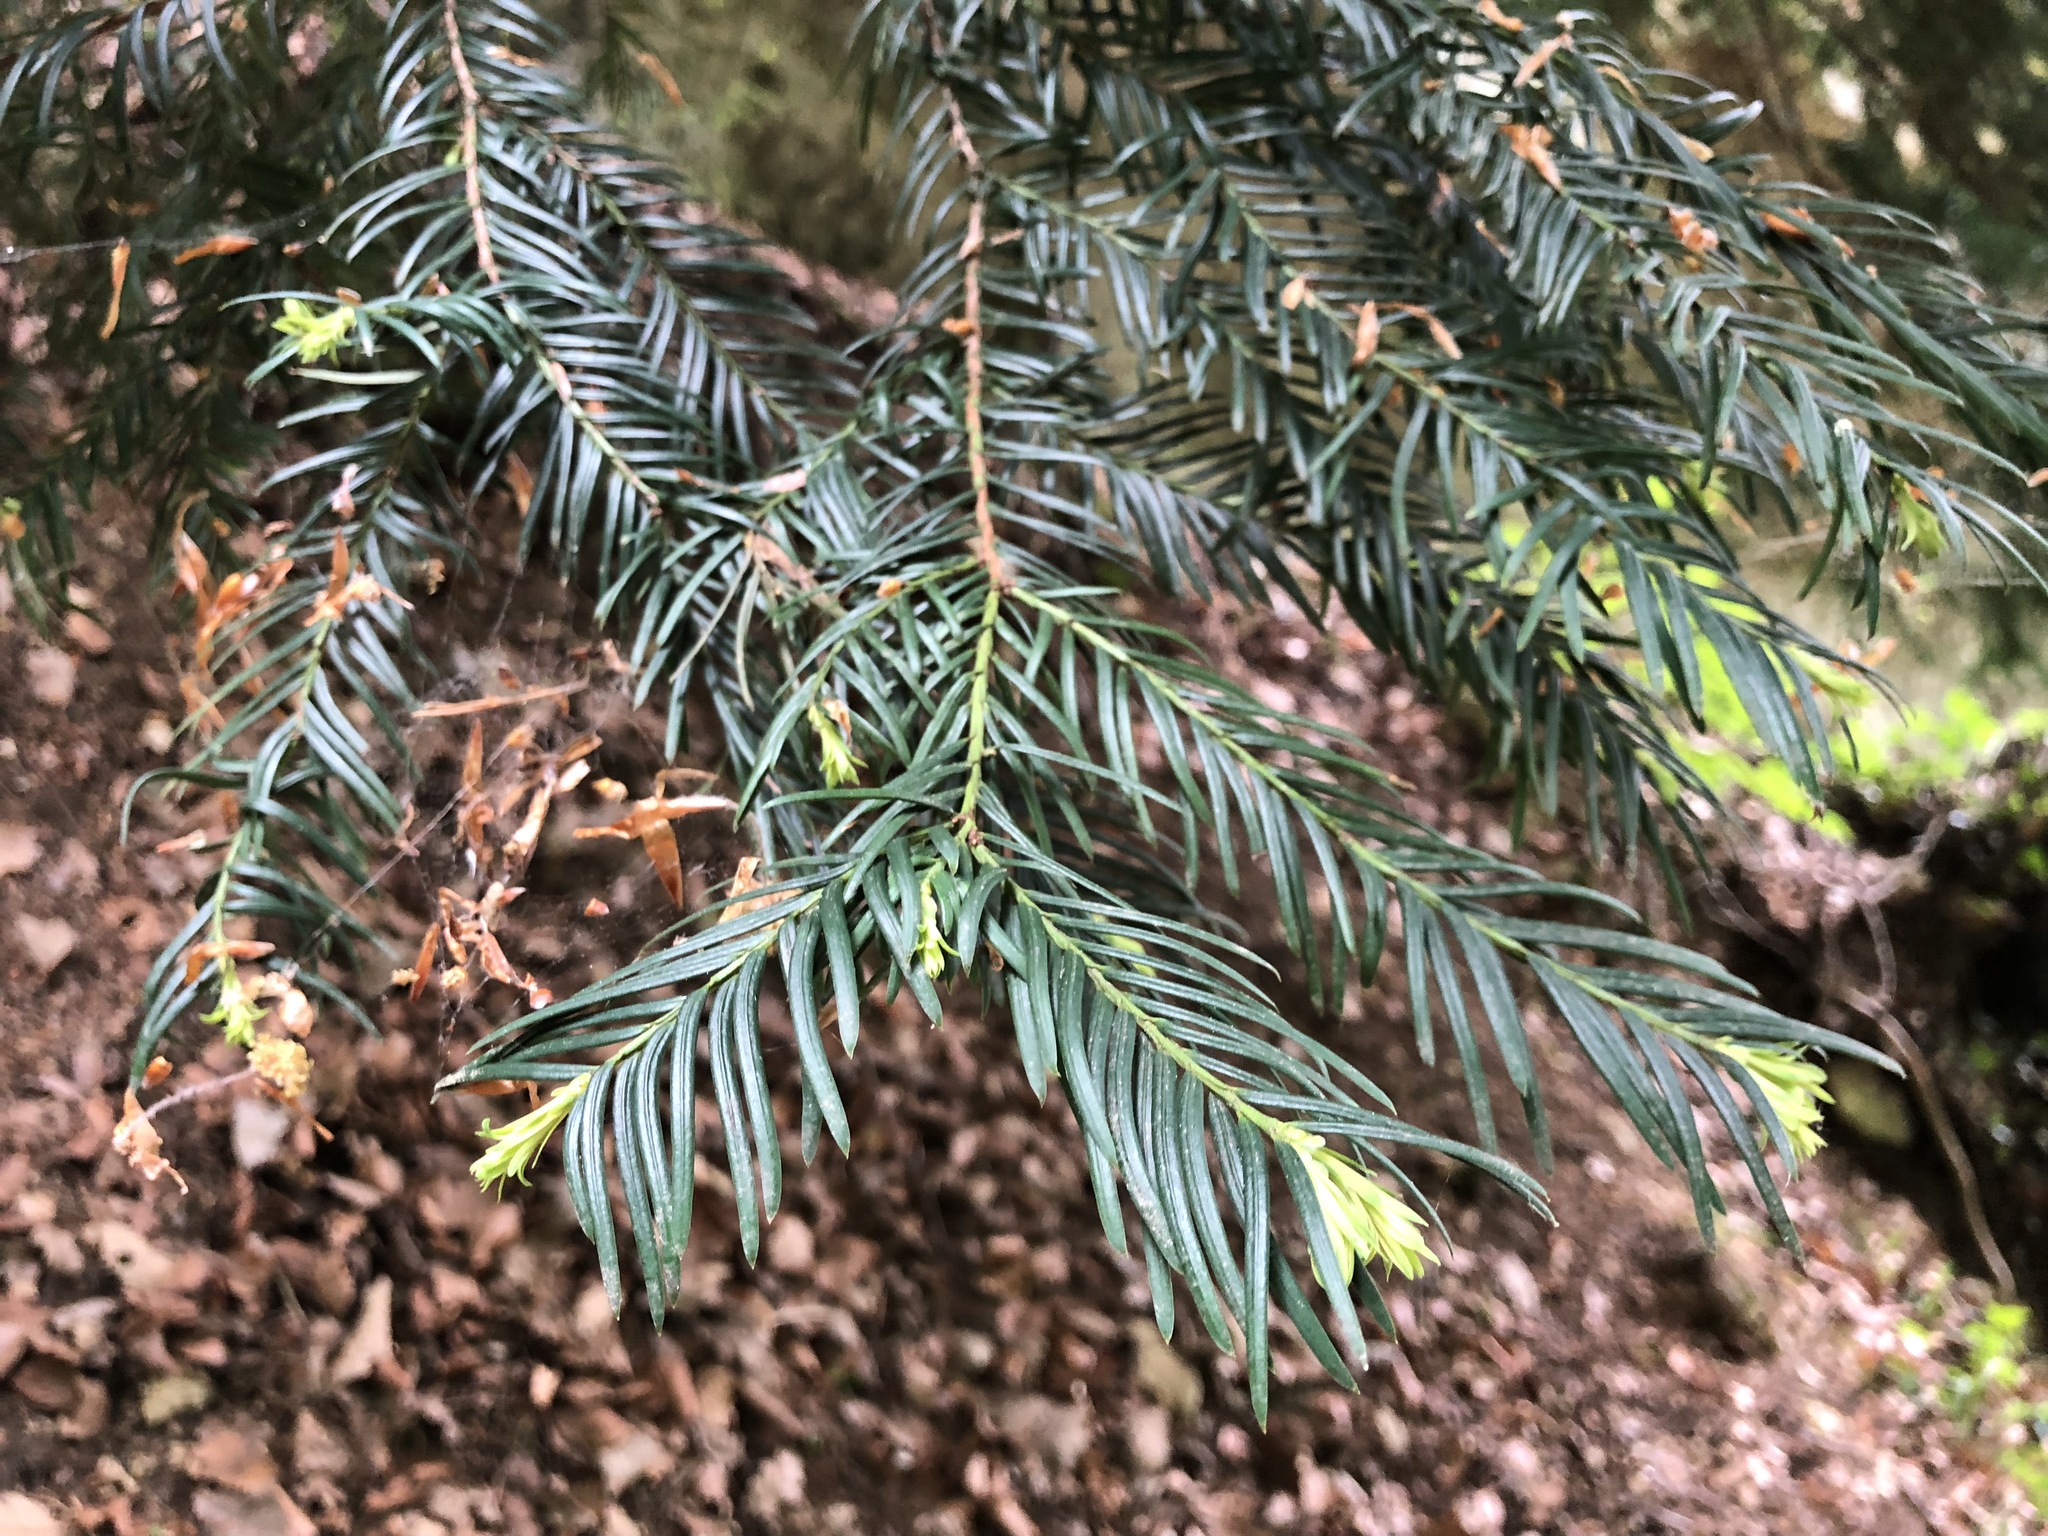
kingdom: Plantae
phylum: Tracheophyta
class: Pinopsida
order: Pinales
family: Taxaceae
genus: Taxus
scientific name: Taxus baccata
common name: Yew
